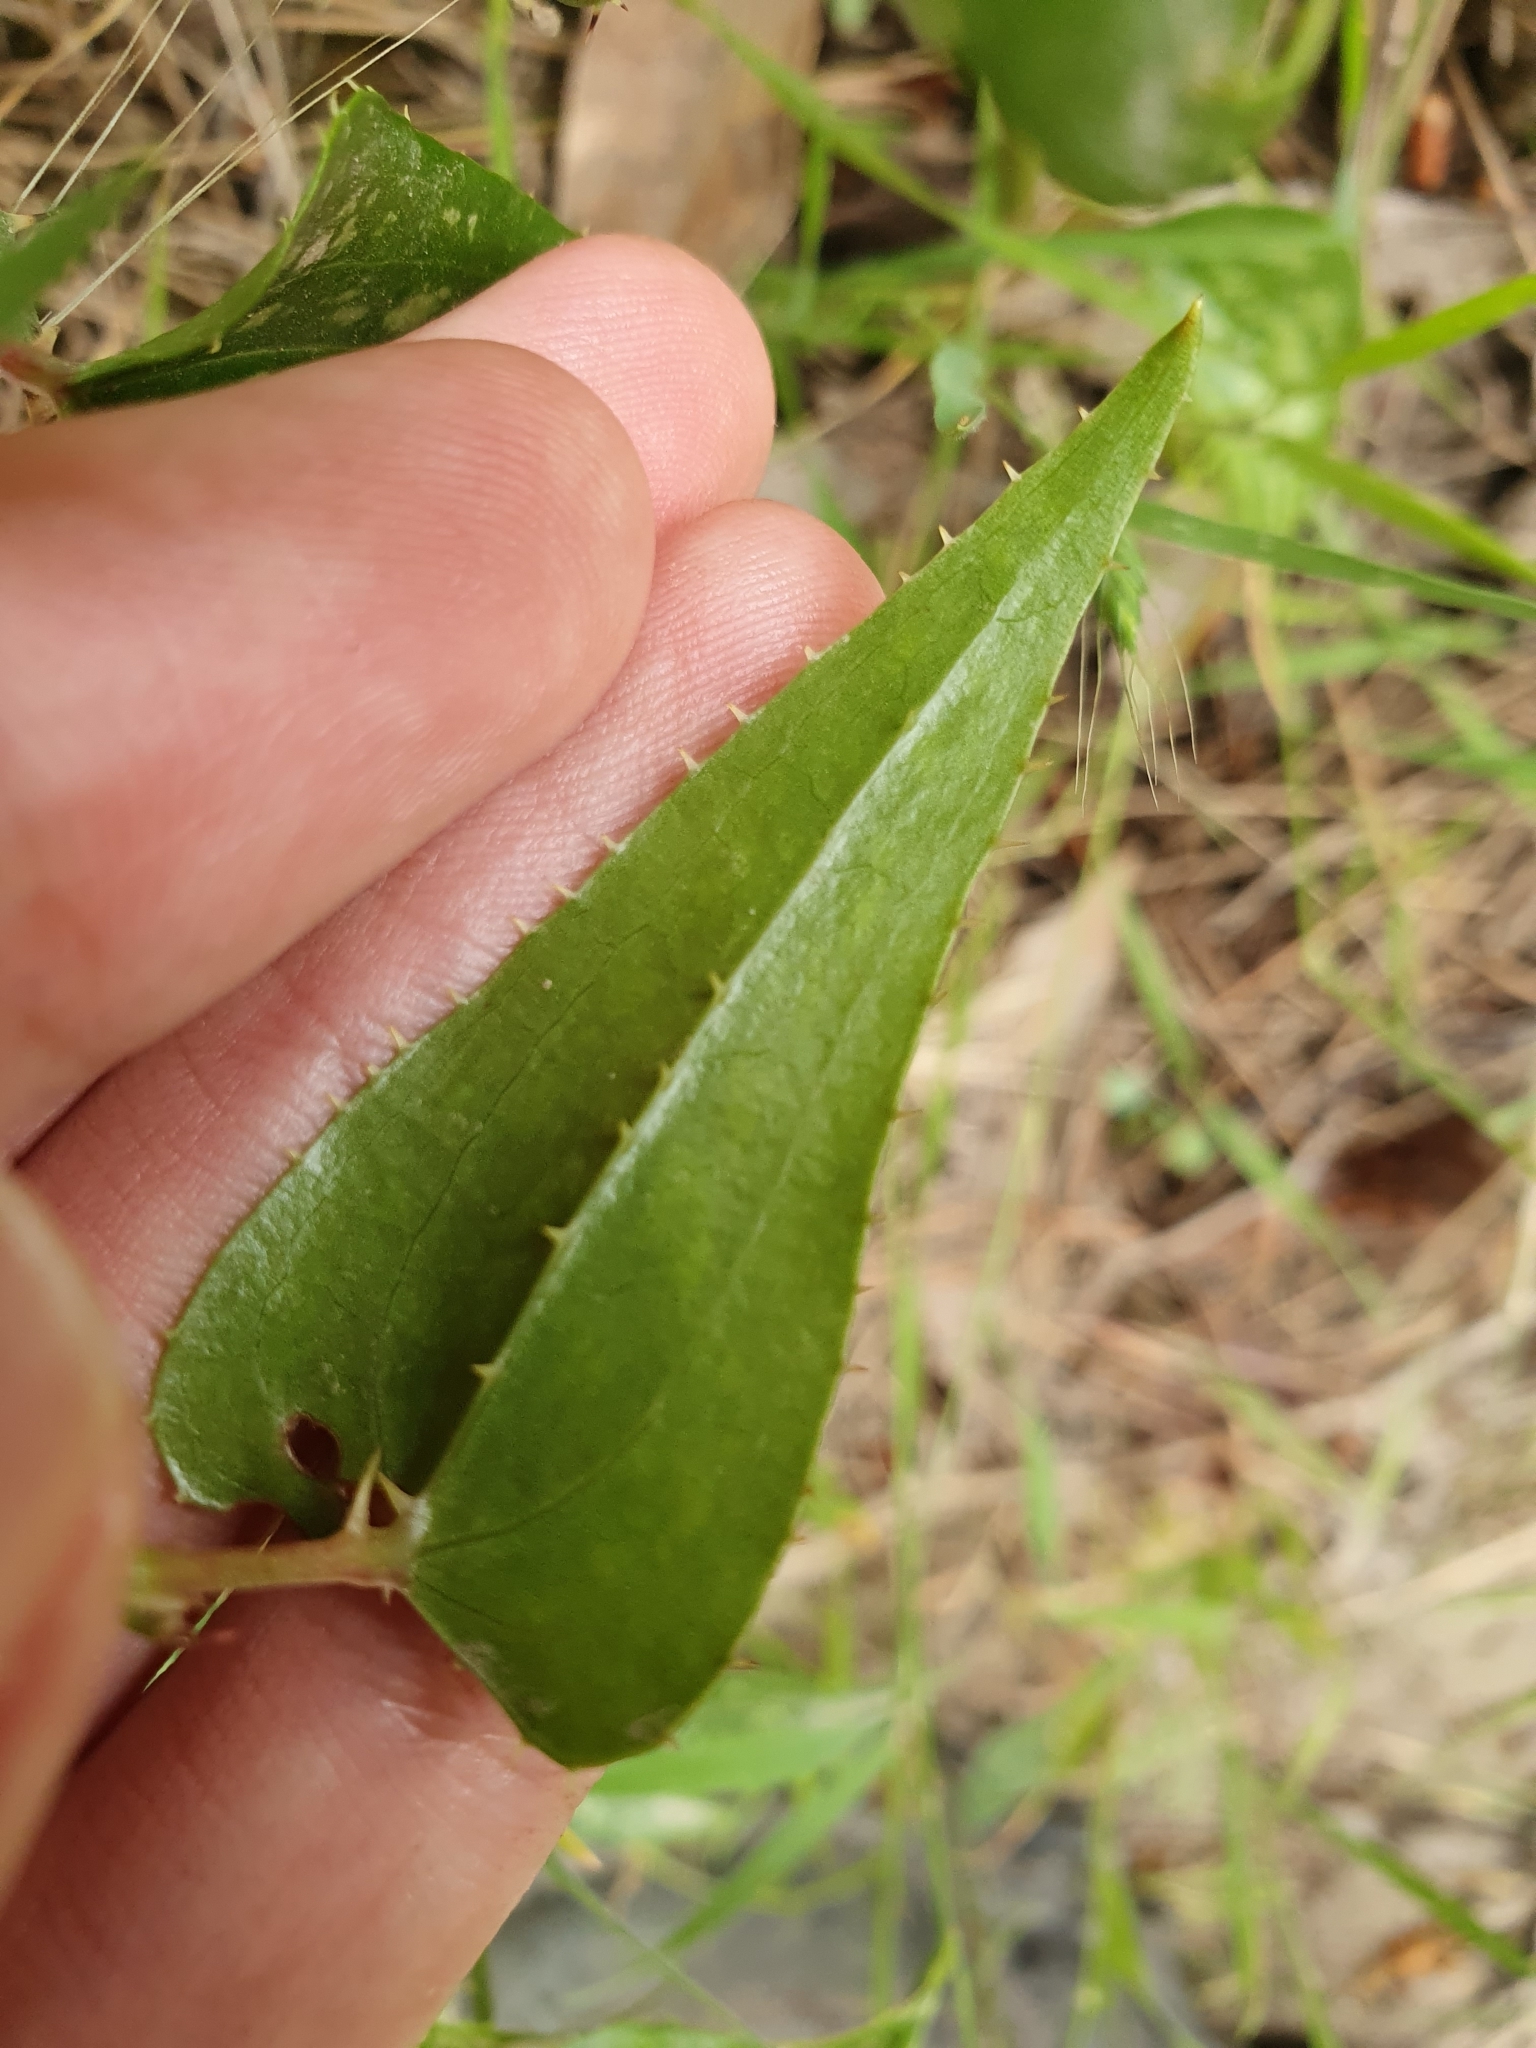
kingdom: Plantae
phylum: Tracheophyta
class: Liliopsida
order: Liliales
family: Smilacaceae
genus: Smilax
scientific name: Smilax aspera
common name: Common smilax
